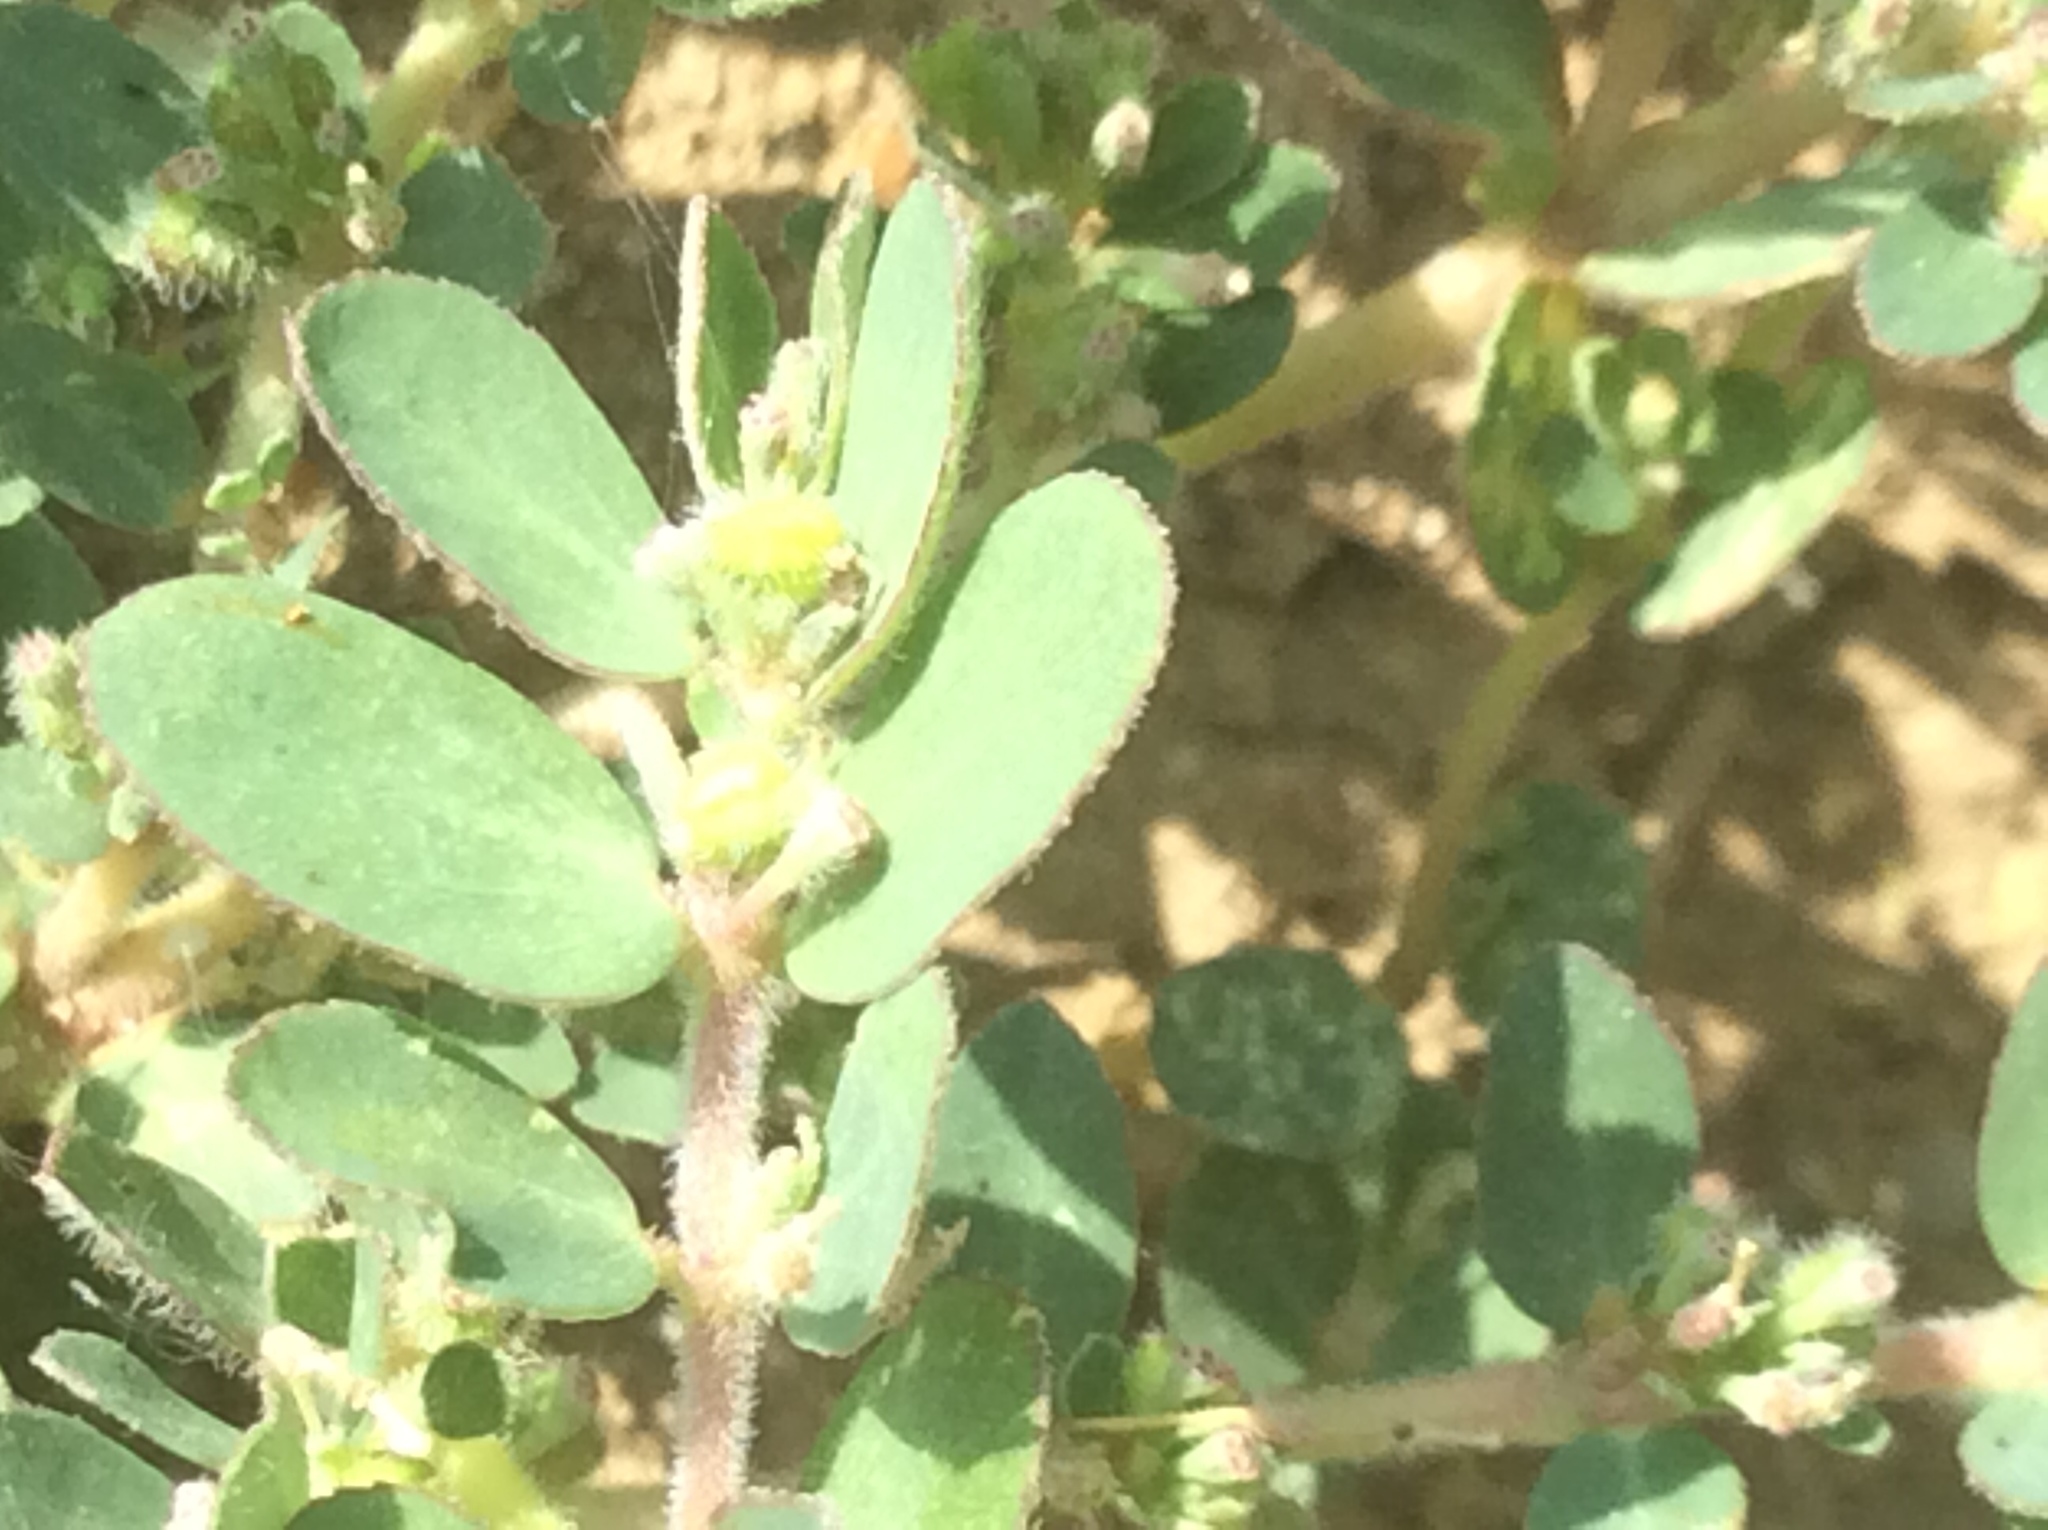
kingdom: Plantae
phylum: Tracheophyta
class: Magnoliopsida
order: Malpighiales
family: Euphorbiaceae
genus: Euphorbia
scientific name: Euphorbia prostrata
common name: Prostrate sandmat
